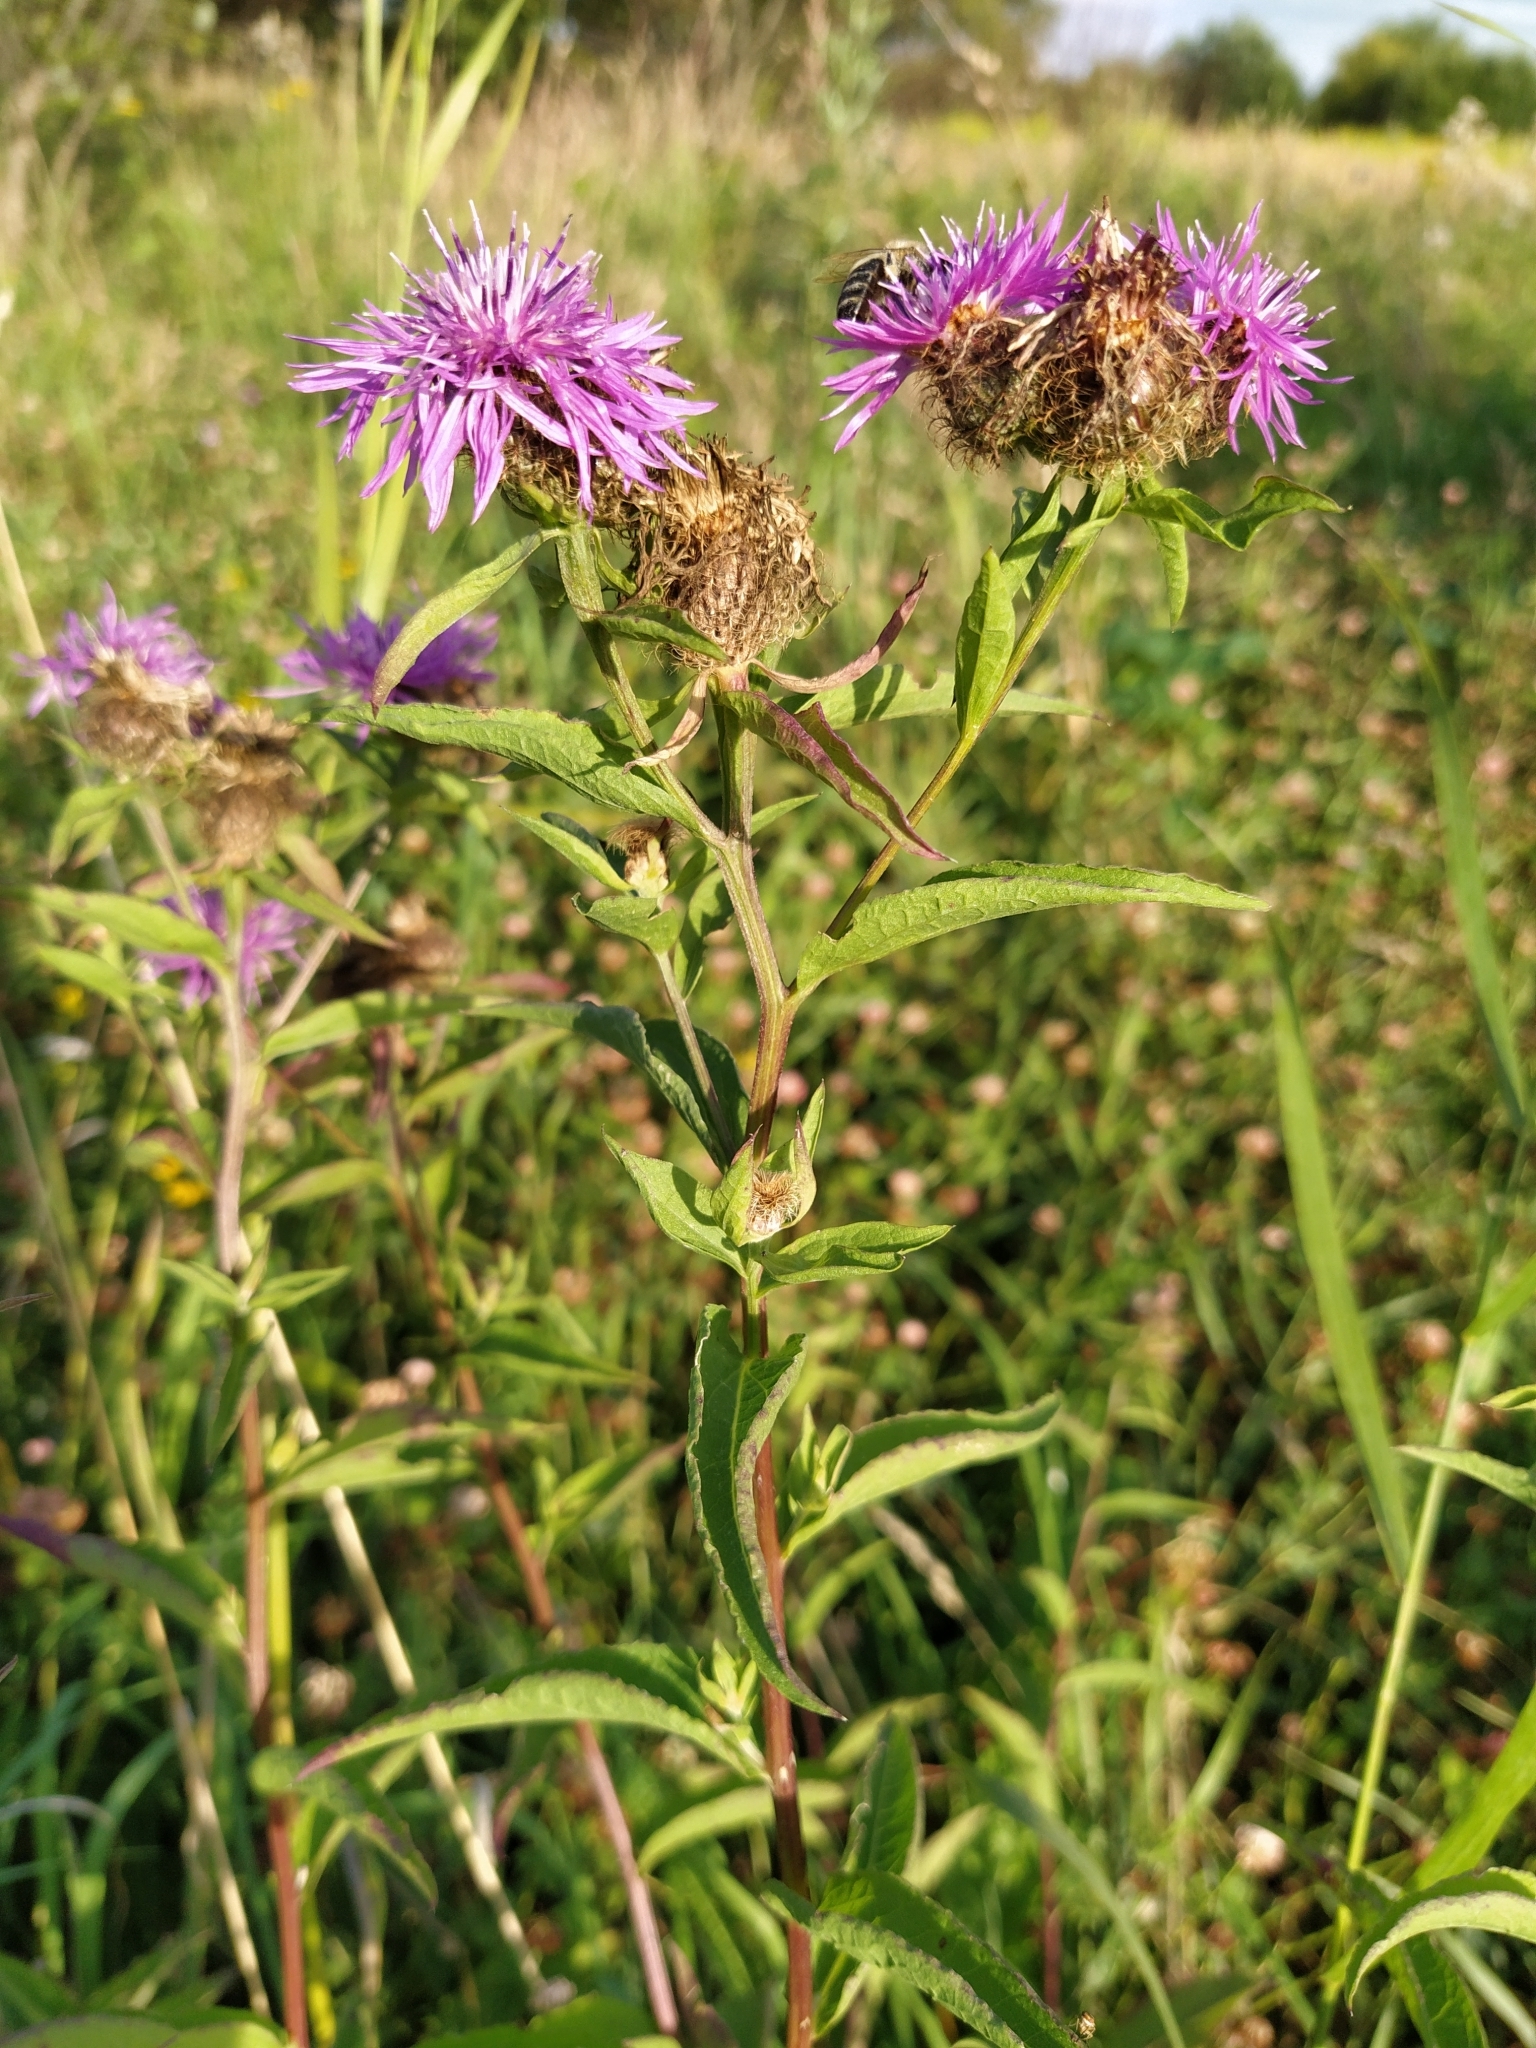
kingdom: Plantae
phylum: Tracheophyta
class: Magnoliopsida
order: Asterales
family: Asteraceae
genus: Centaurea
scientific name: Centaurea phrygia
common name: Wig knapweed
